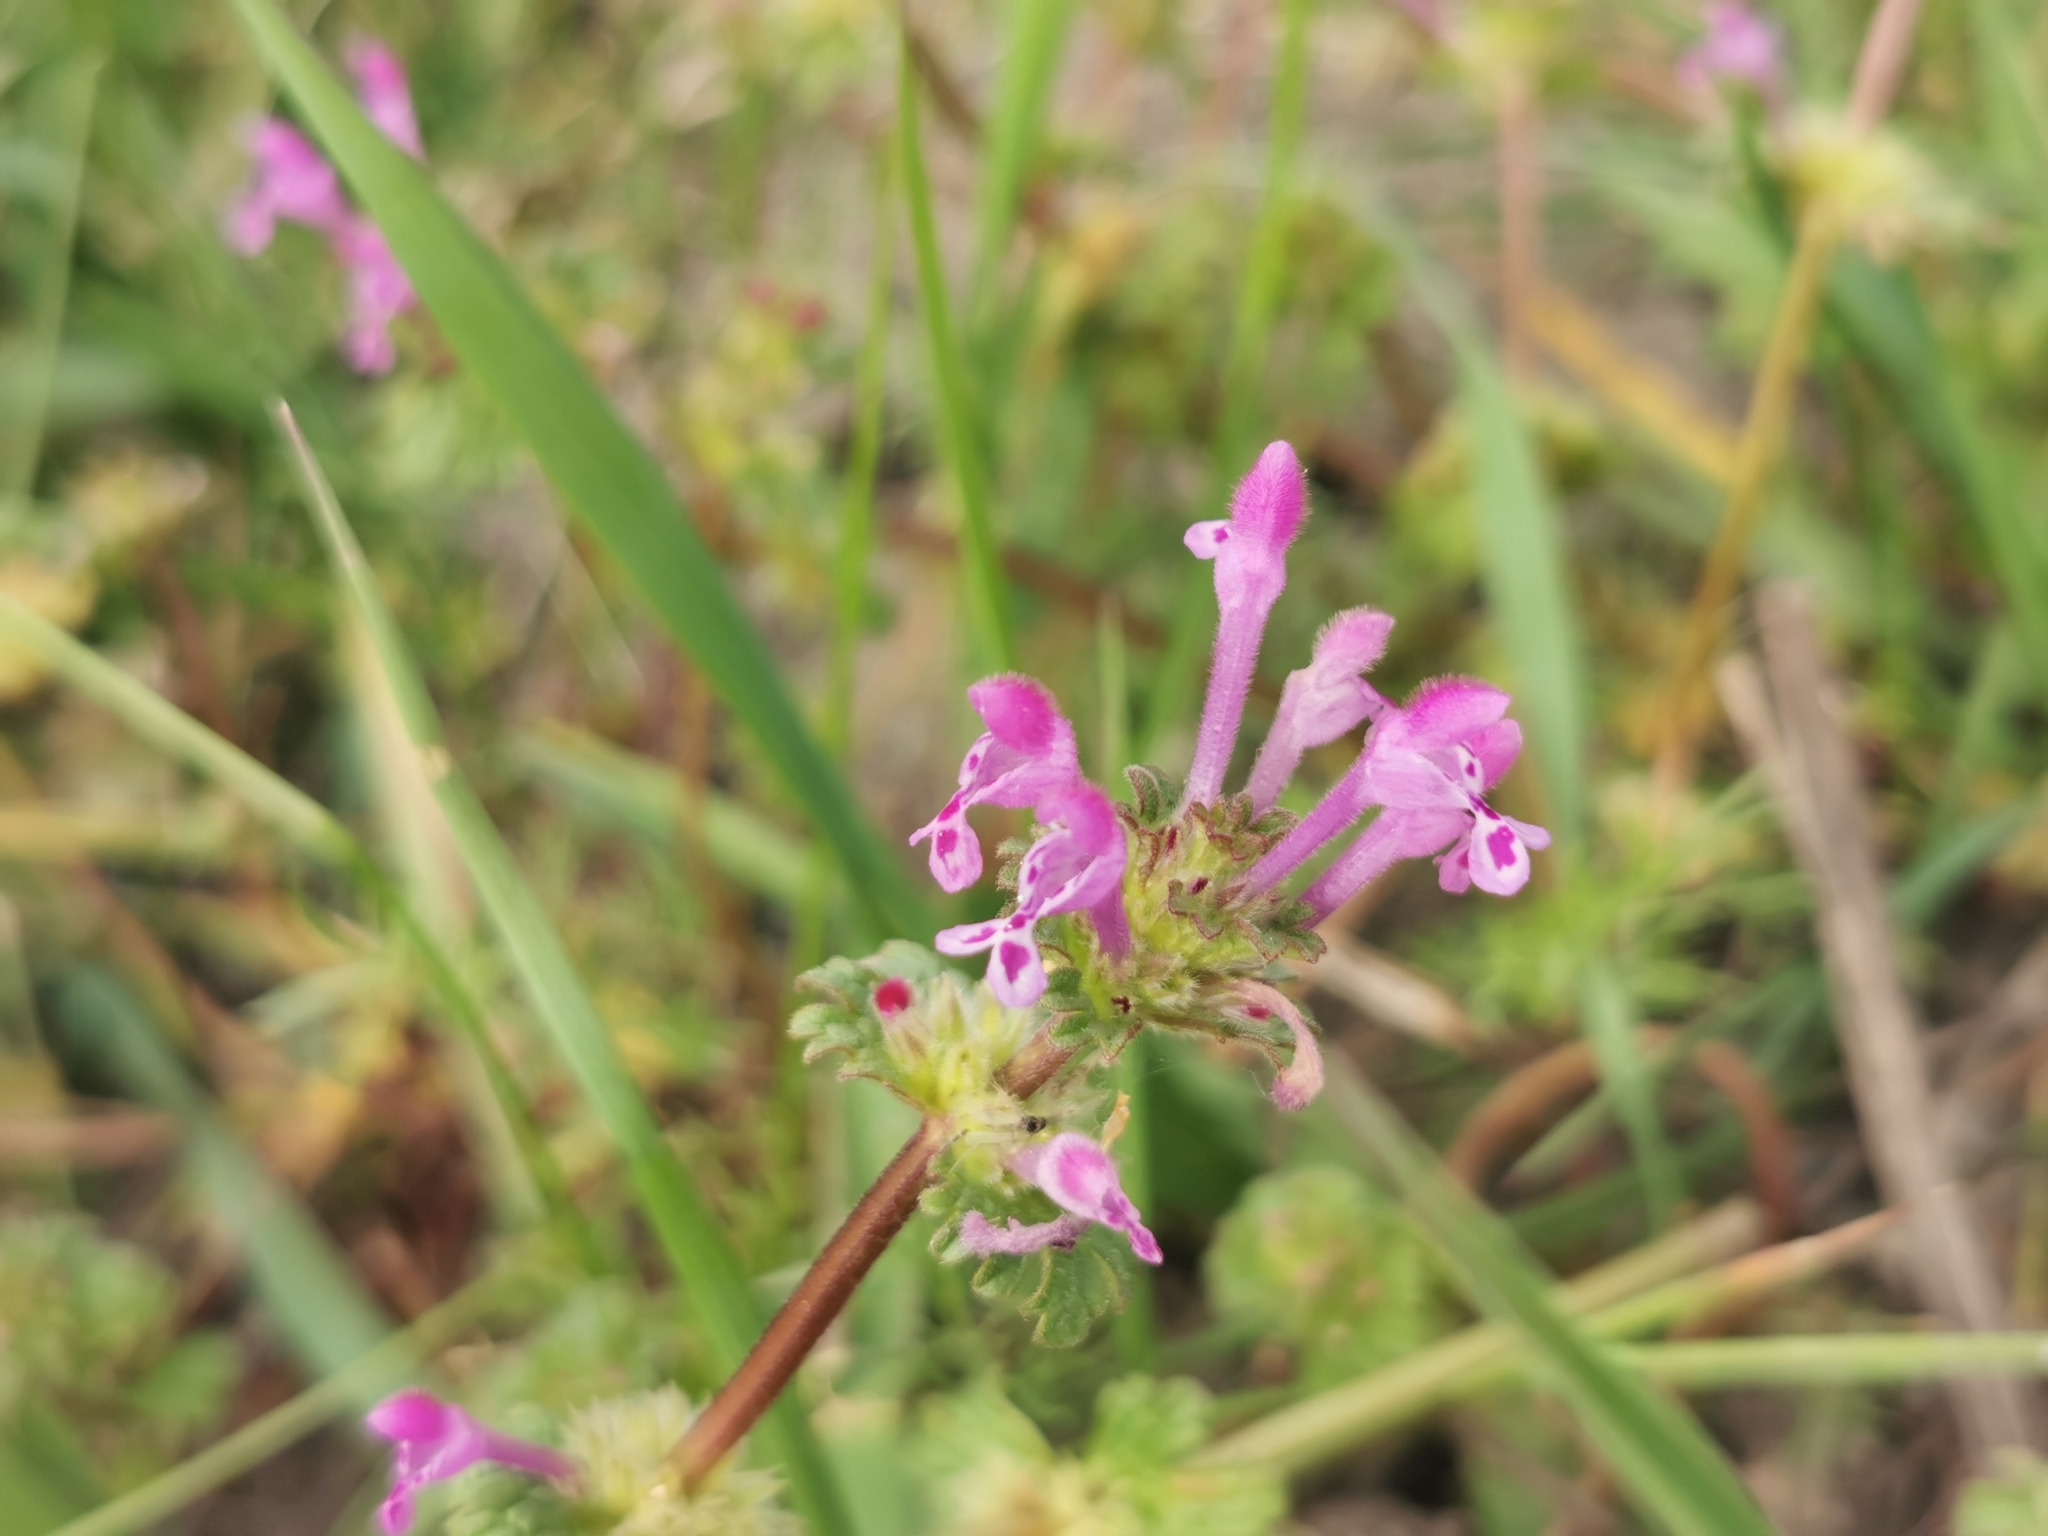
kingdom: Plantae
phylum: Tracheophyta
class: Magnoliopsida
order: Lamiales
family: Lamiaceae
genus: Lamium
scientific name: Lamium amplexicaule
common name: Henbit dead-nettle
